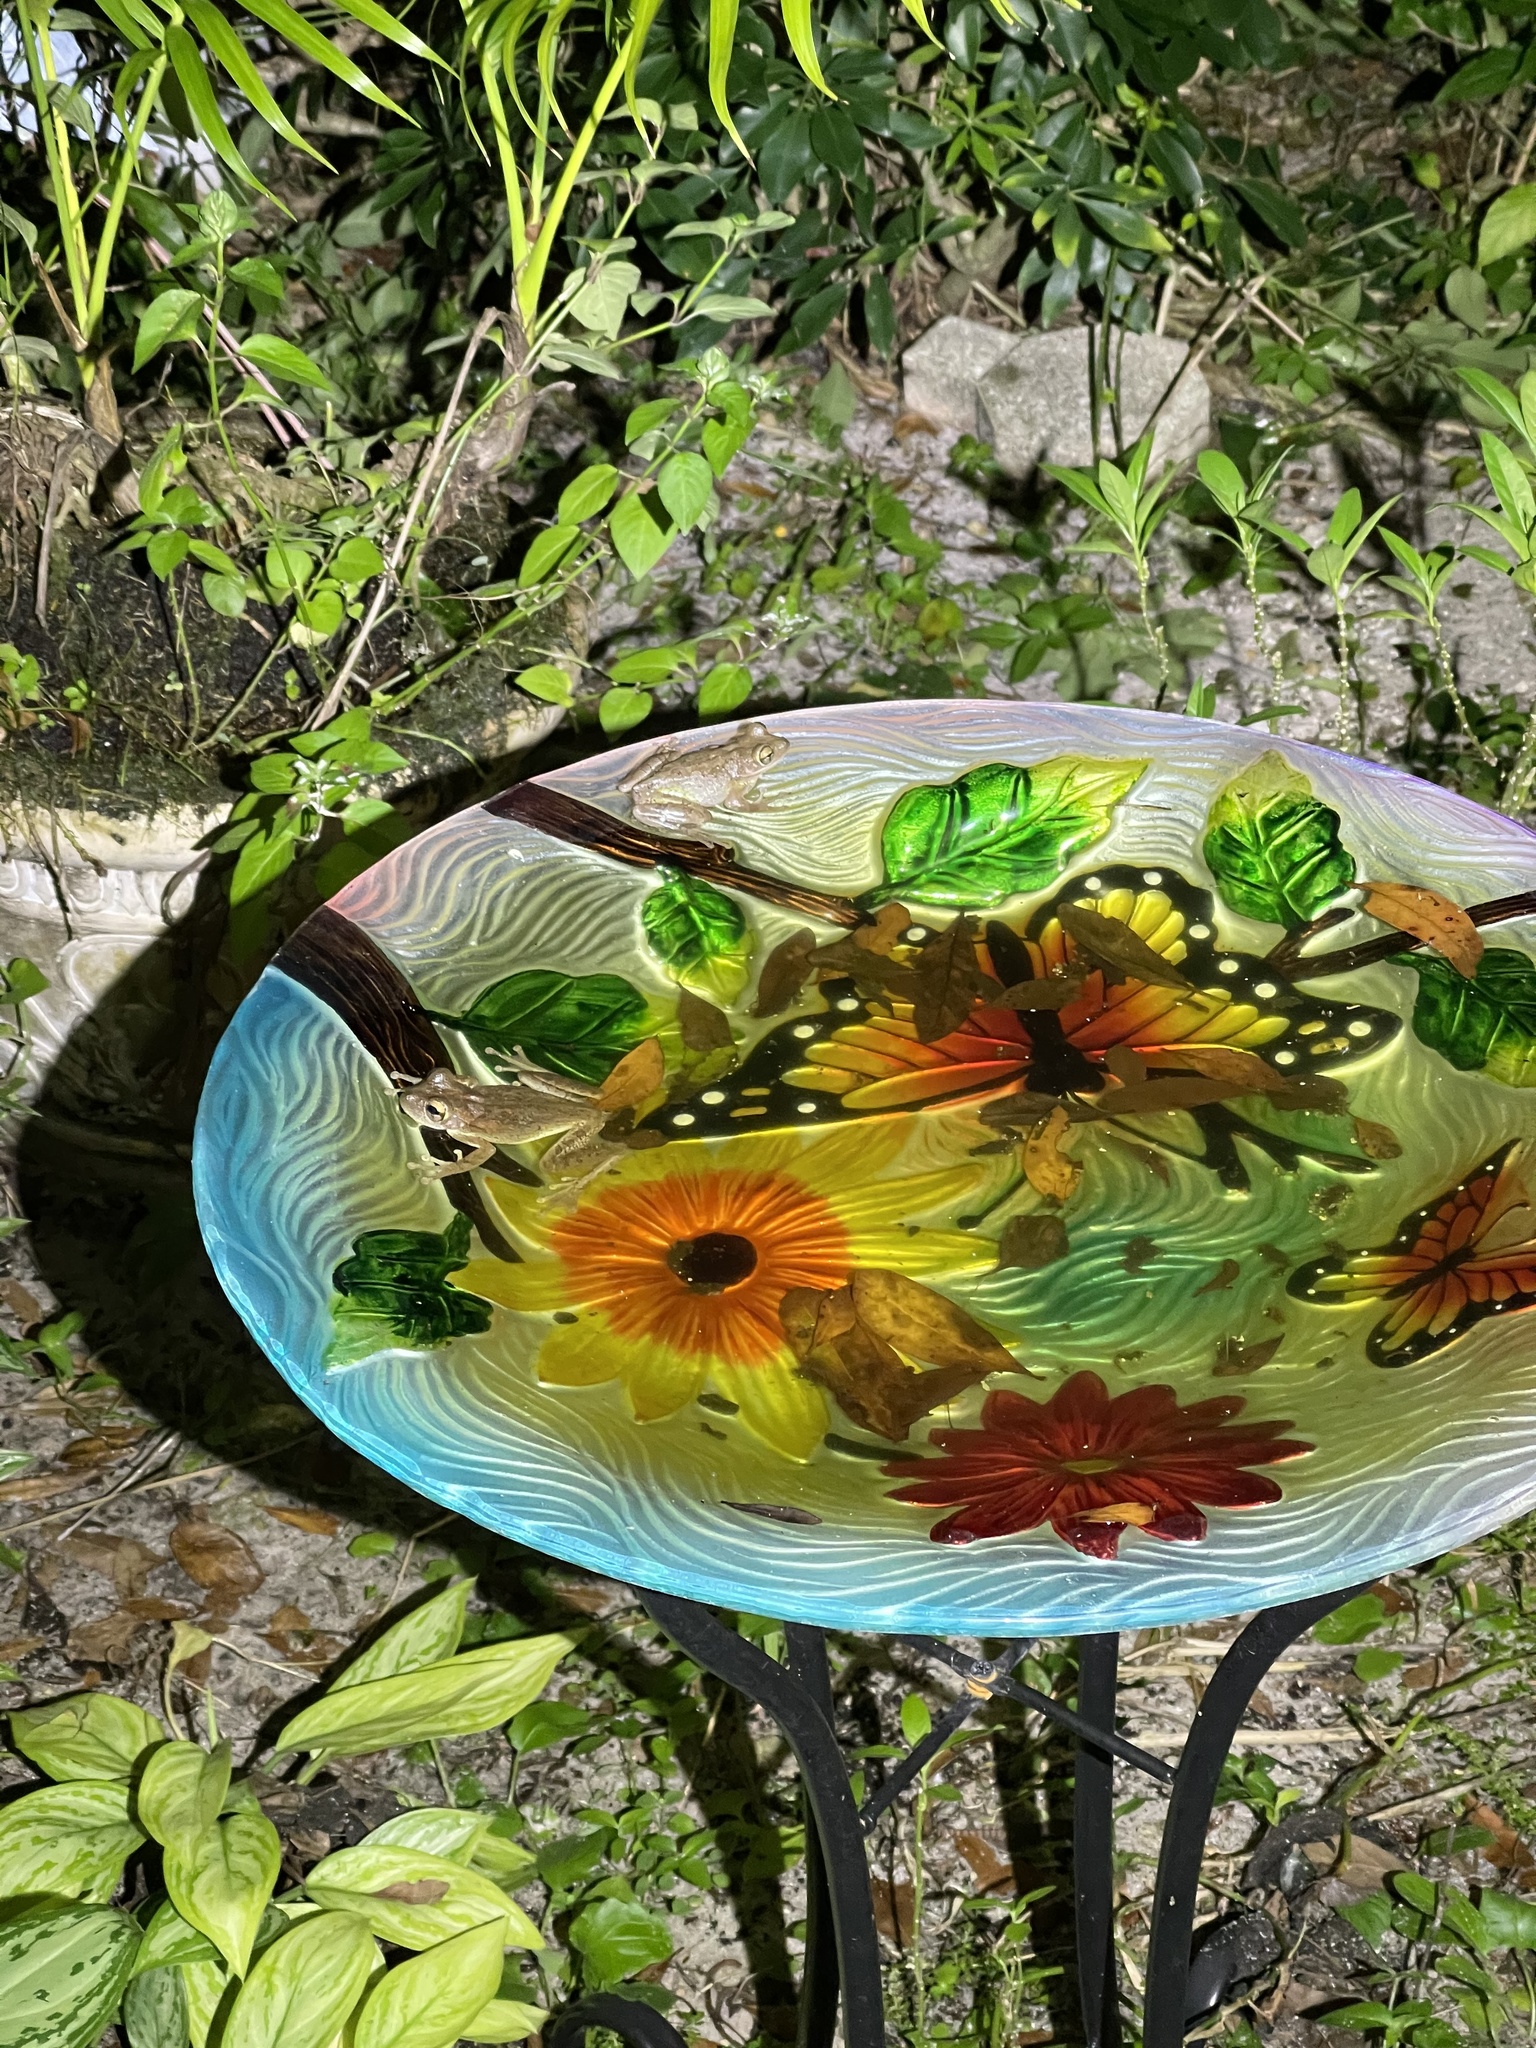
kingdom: Animalia
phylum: Chordata
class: Amphibia
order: Anura
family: Hylidae
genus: Osteopilus
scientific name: Osteopilus septentrionalis
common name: Cuban treefrog
